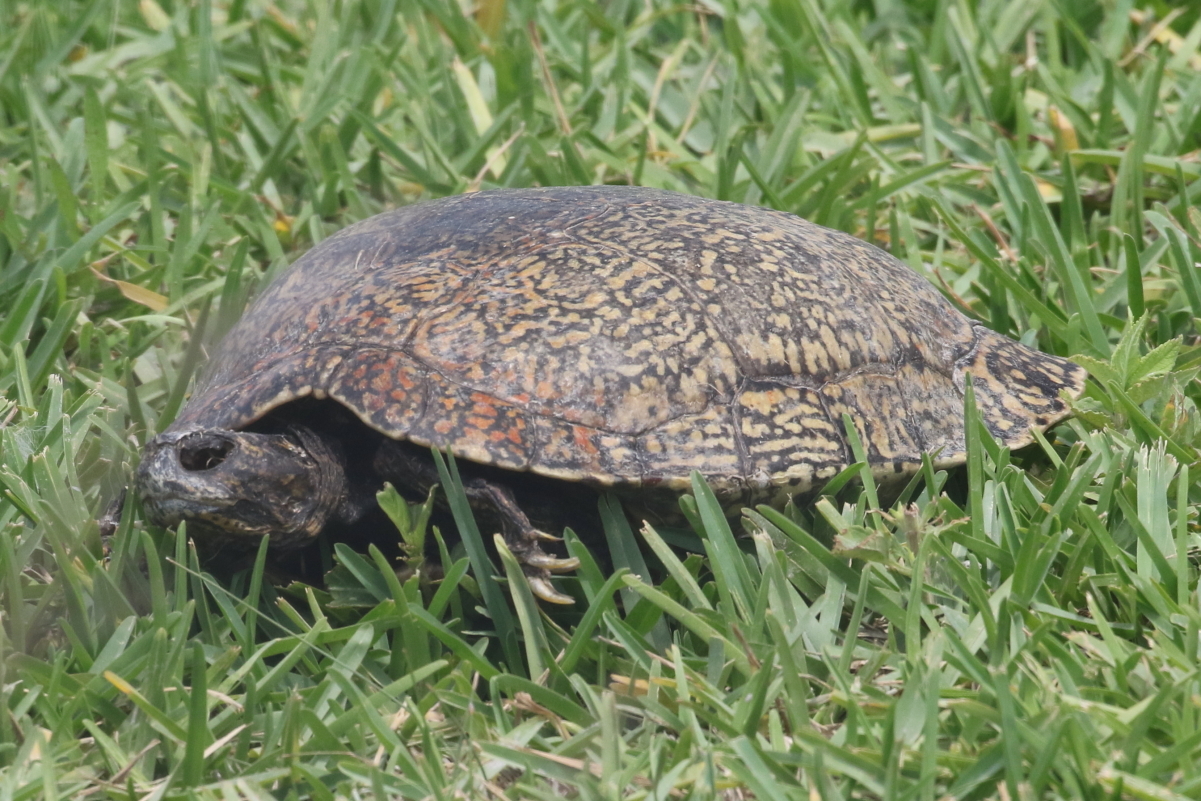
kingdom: Animalia
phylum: Chordata
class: Testudines
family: Emydidae
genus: Pseudemys
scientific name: Pseudemys gorzugi
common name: Rio grande cooter
